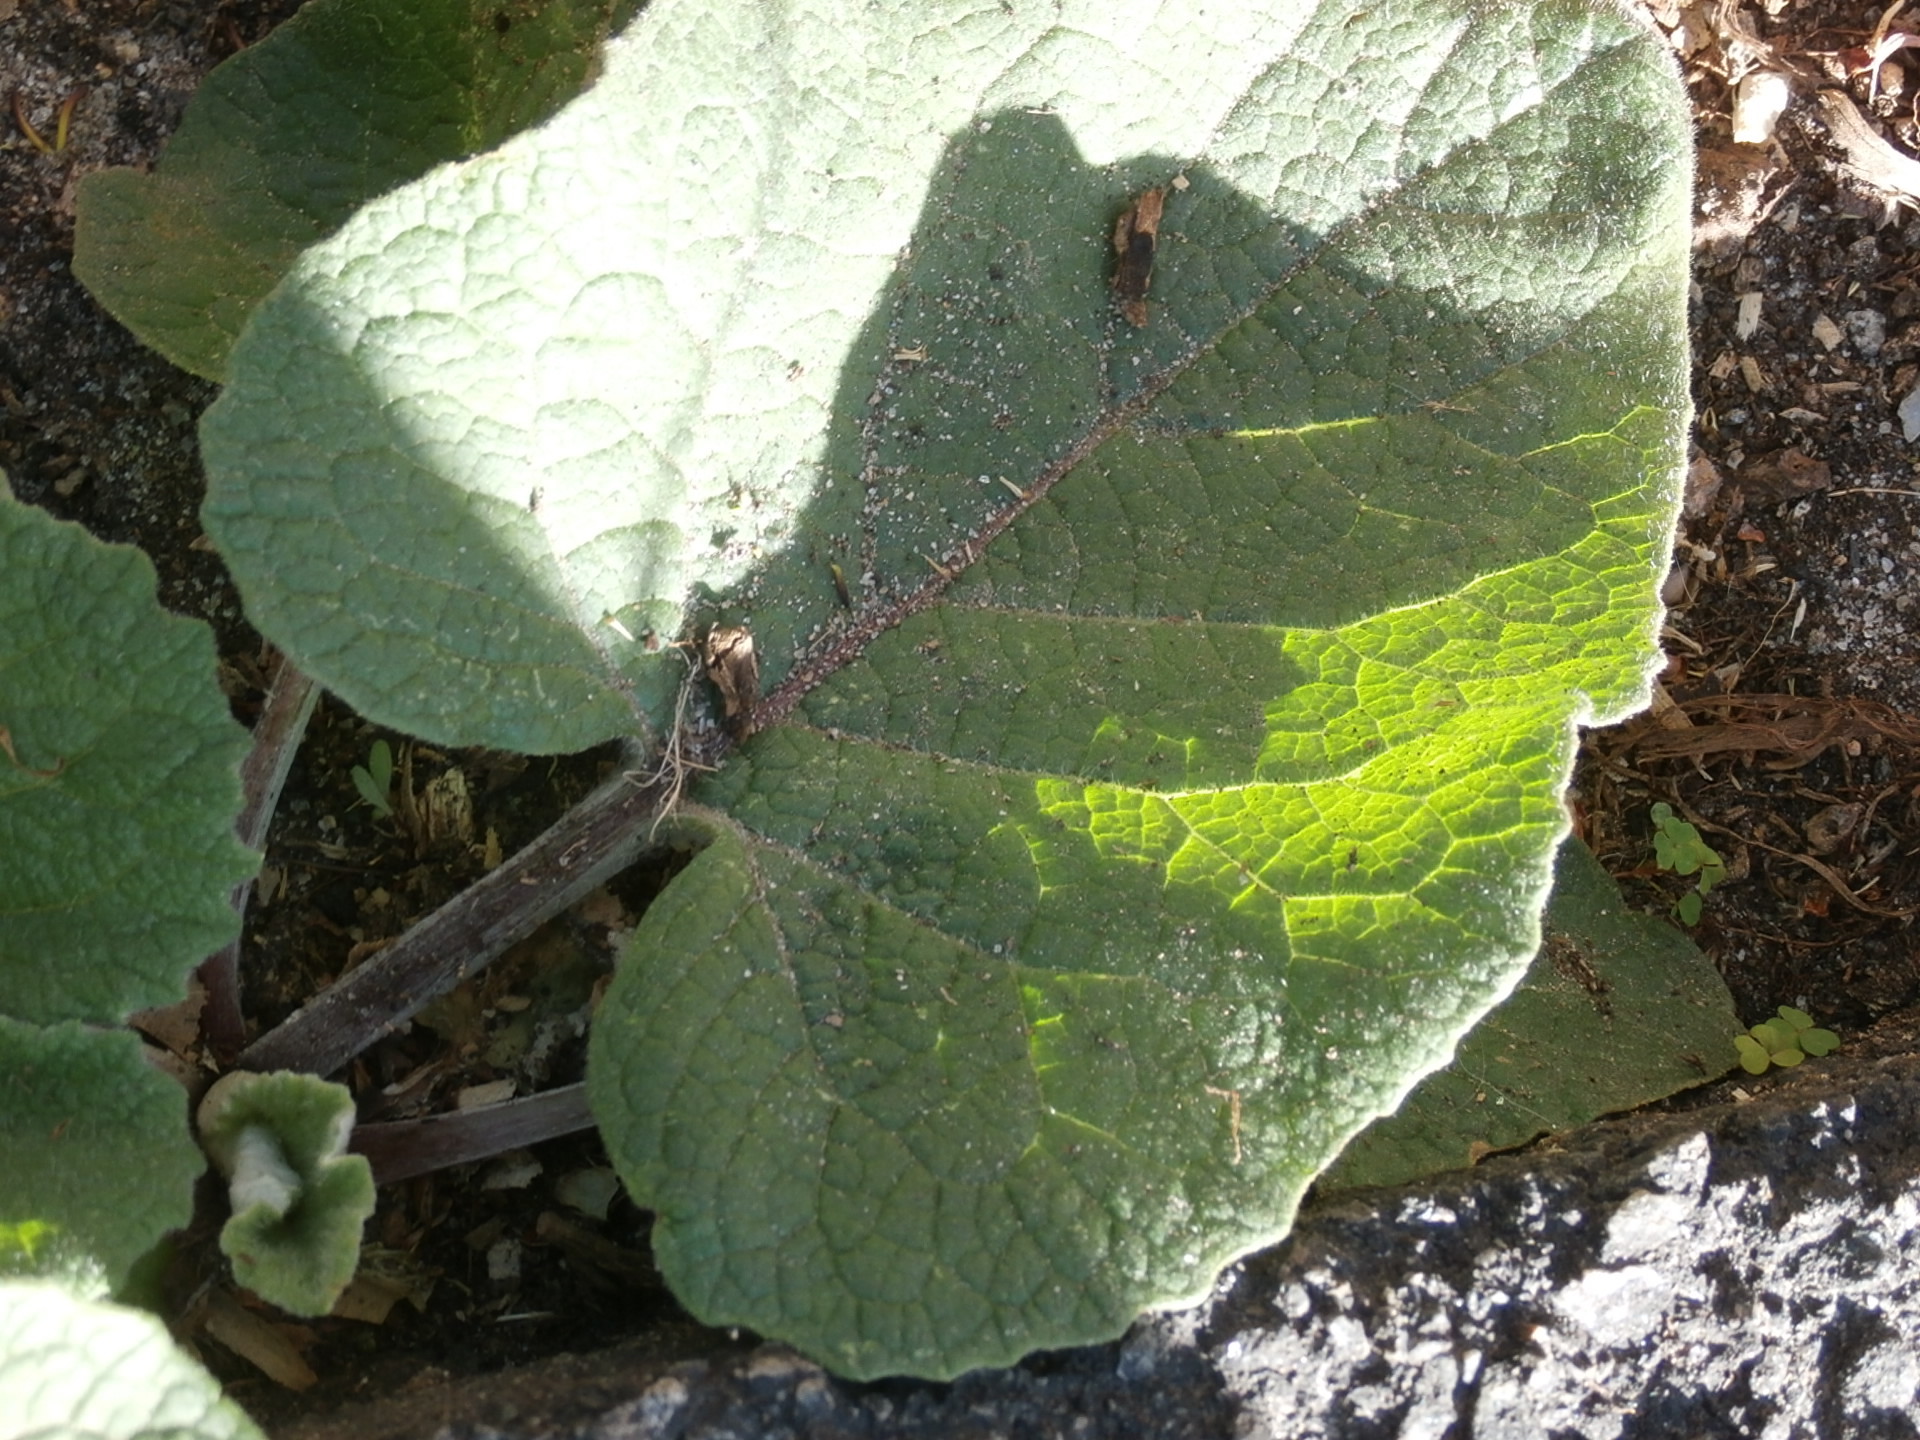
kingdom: Plantae
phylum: Tracheophyta
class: Magnoliopsida
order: Asterales
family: Asteraceae
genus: Arctium
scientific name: Arctium minus
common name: Lesser burdock
